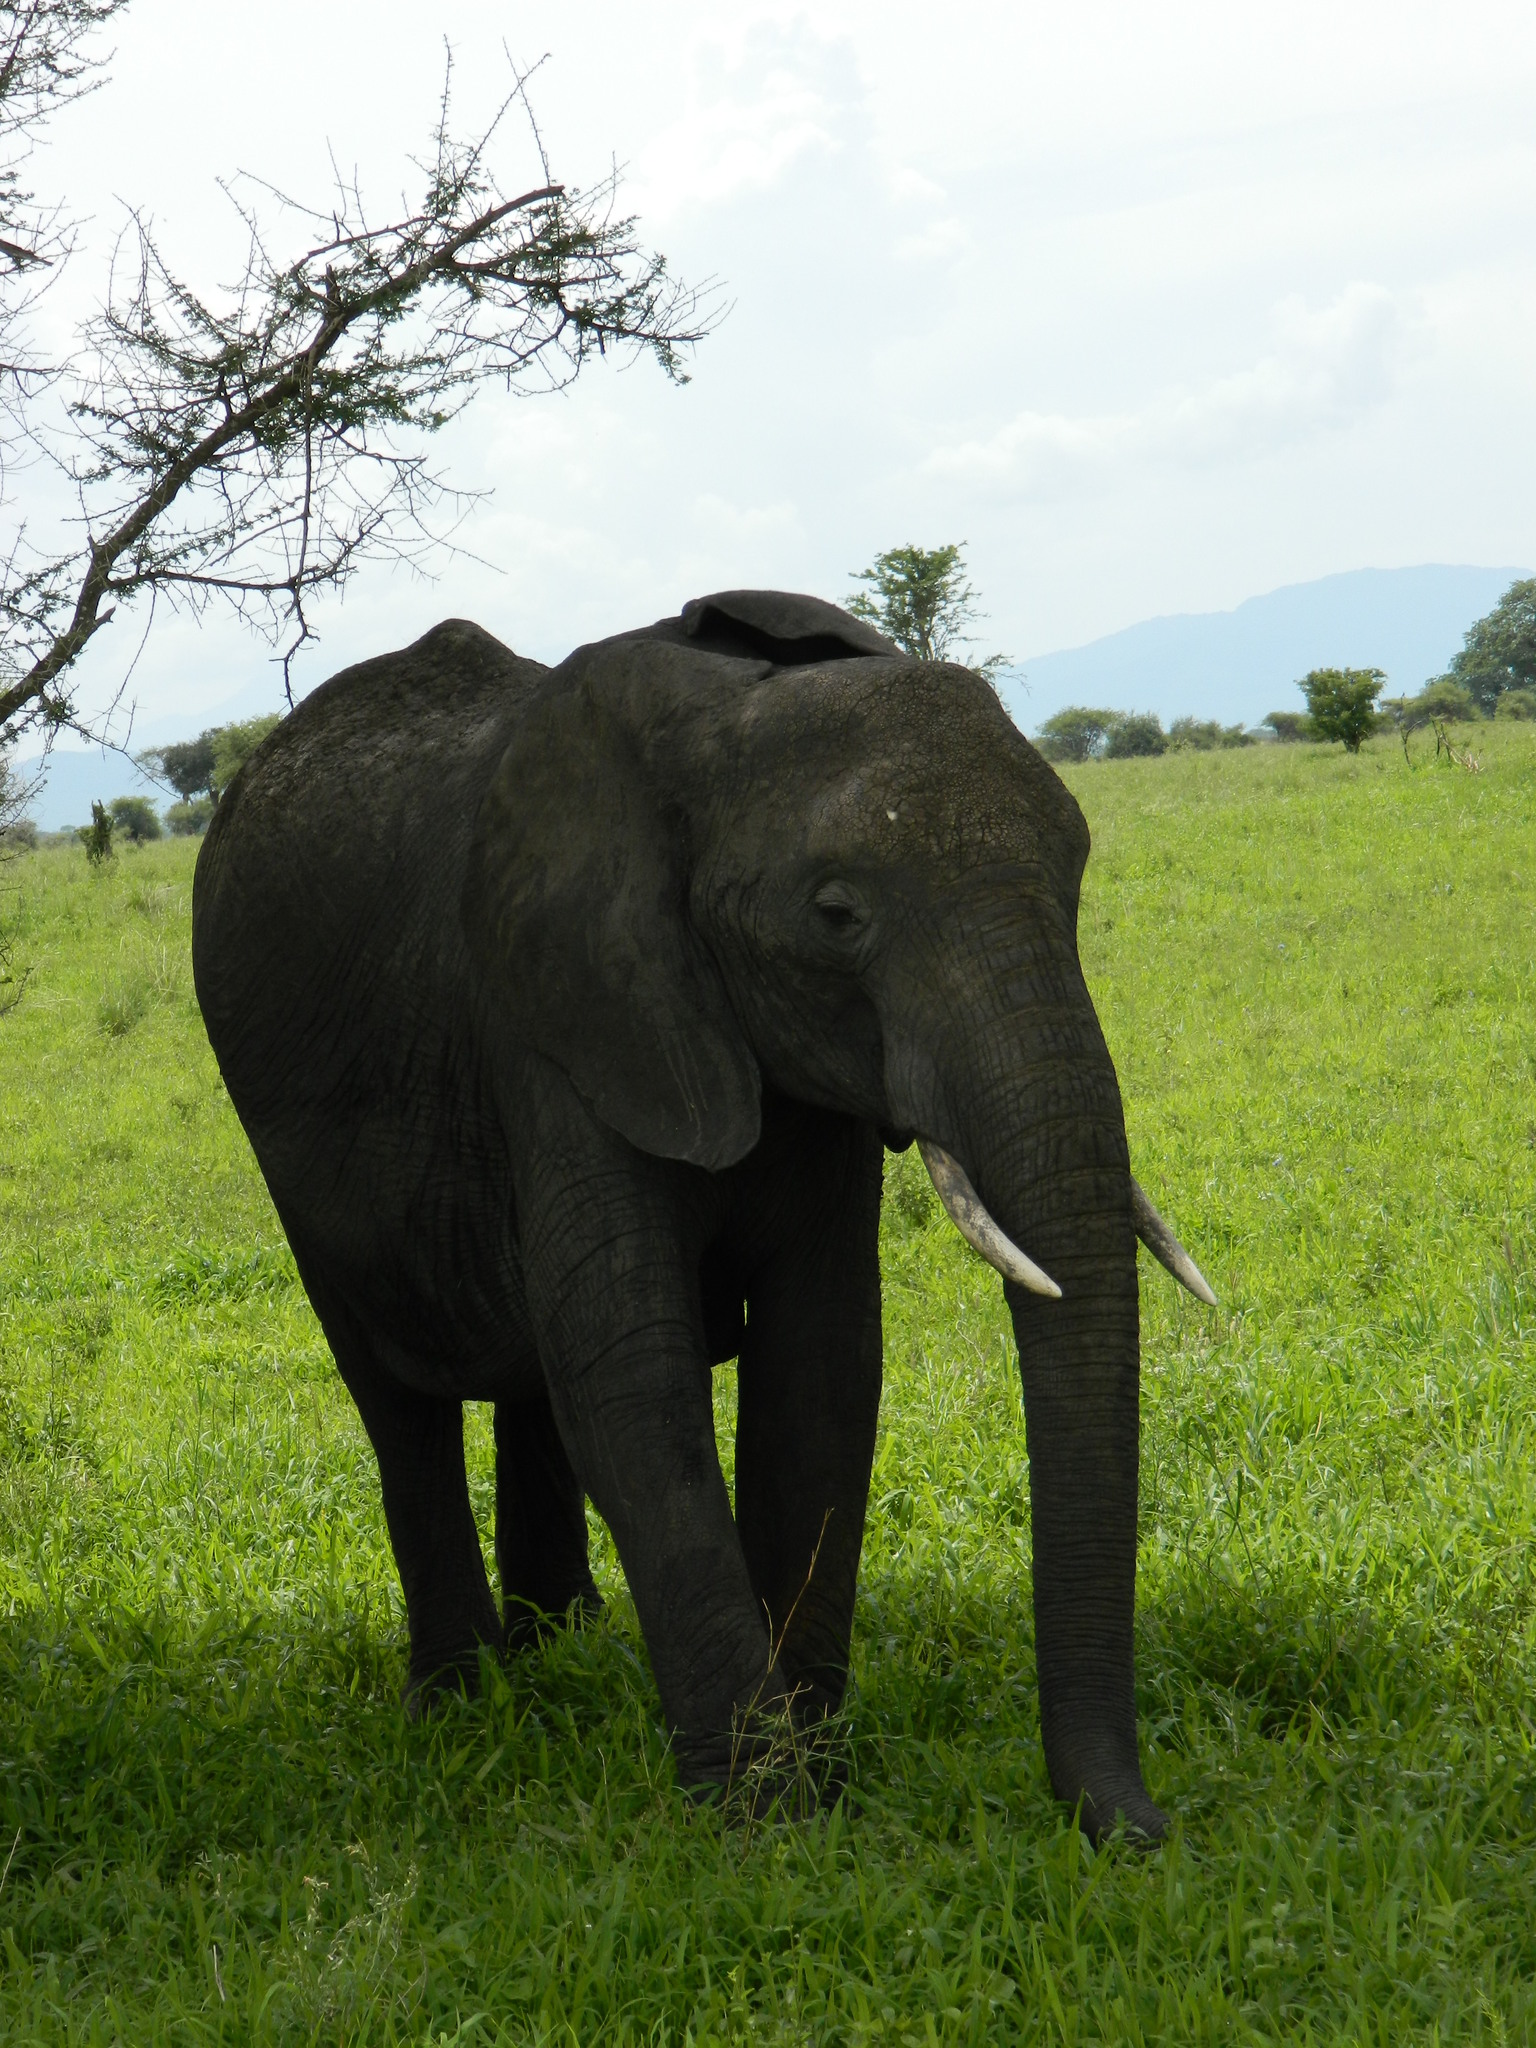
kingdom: Animalia
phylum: Chordata
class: Mammalia
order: Proboscidea
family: Elephantidae
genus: Loxodonta
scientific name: Loxodonta africana
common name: African elephant
